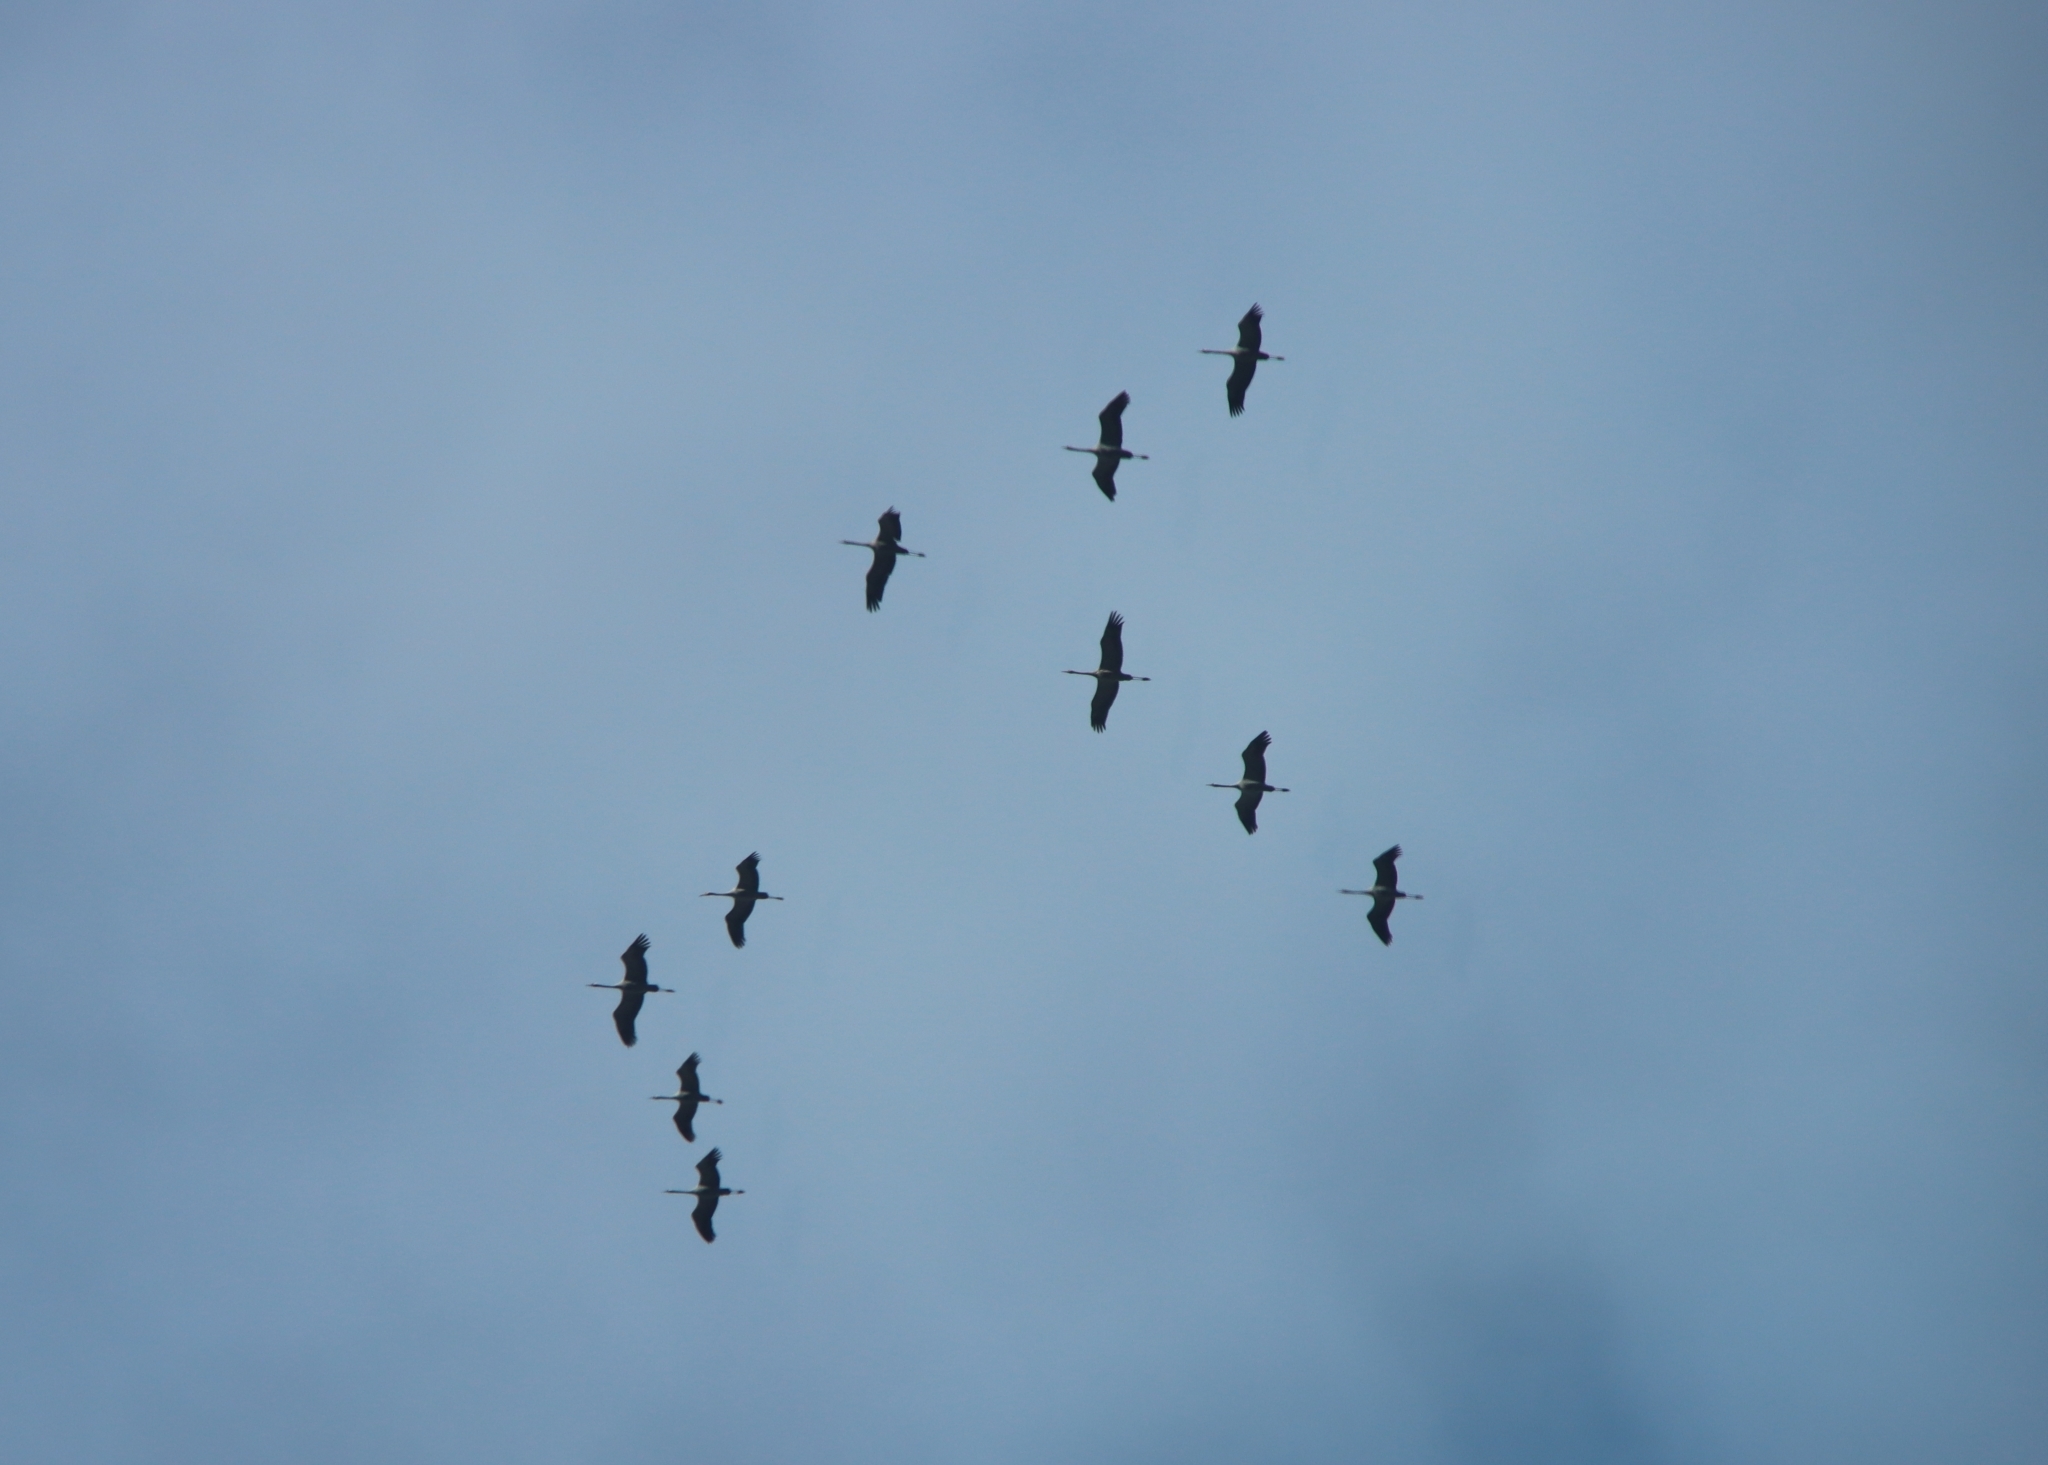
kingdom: Animalia
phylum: Chordata
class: Aves
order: Gruiformes
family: Gruidae
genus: Grus
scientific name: Grus grus
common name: Common crane
